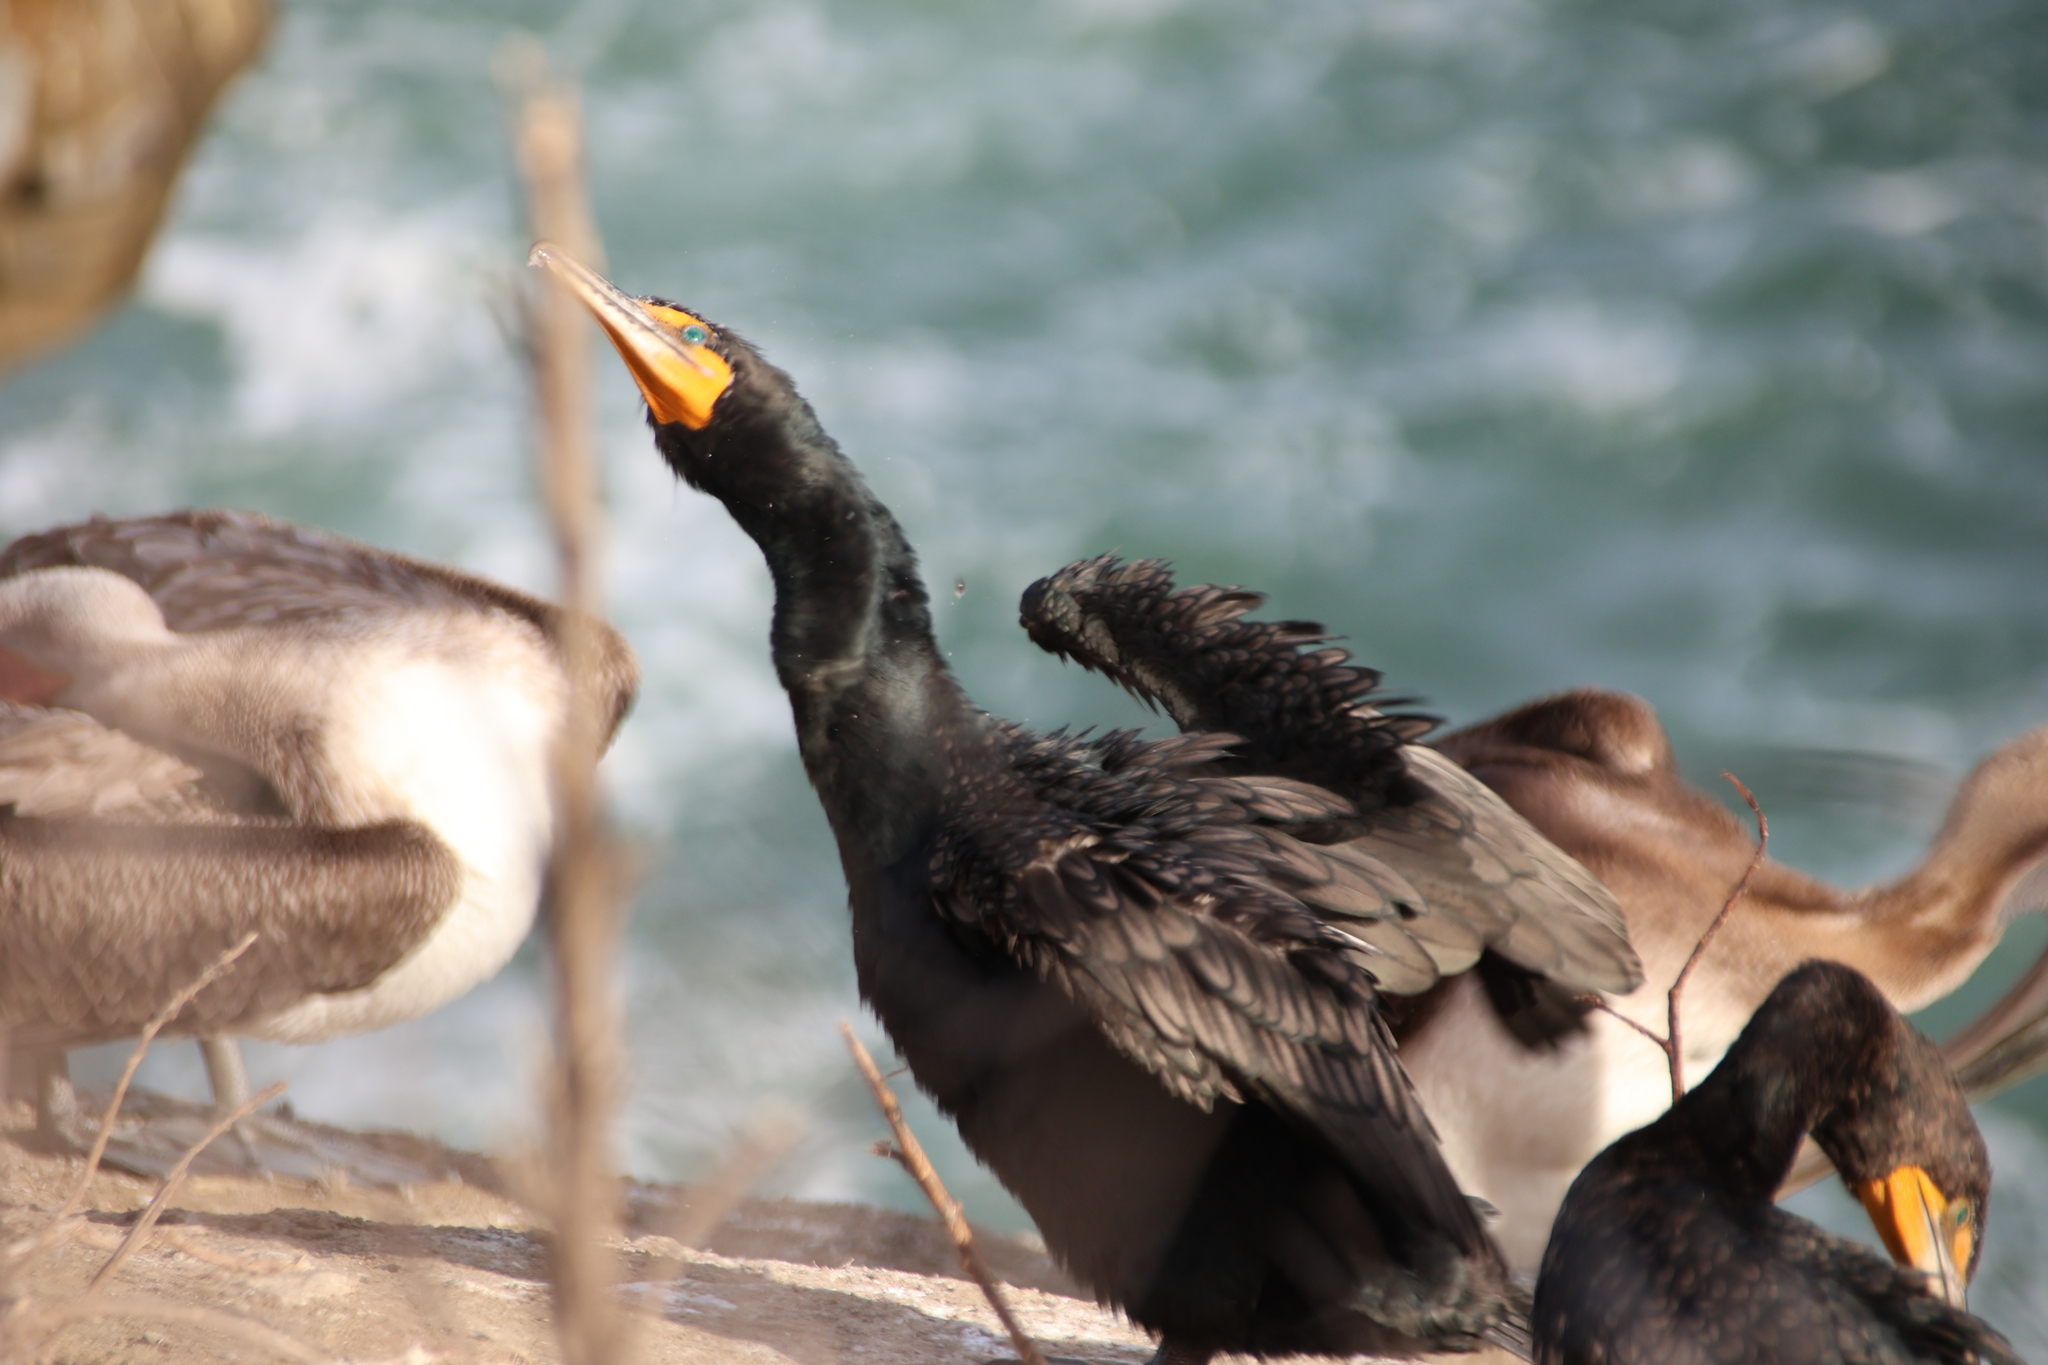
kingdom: Animalia
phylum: Chordata
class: Aves
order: Suliformes
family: Phalacrocoracidae
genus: Phalacrocorax
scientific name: Phalacrocorax auritus
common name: Double-crested cormorant
